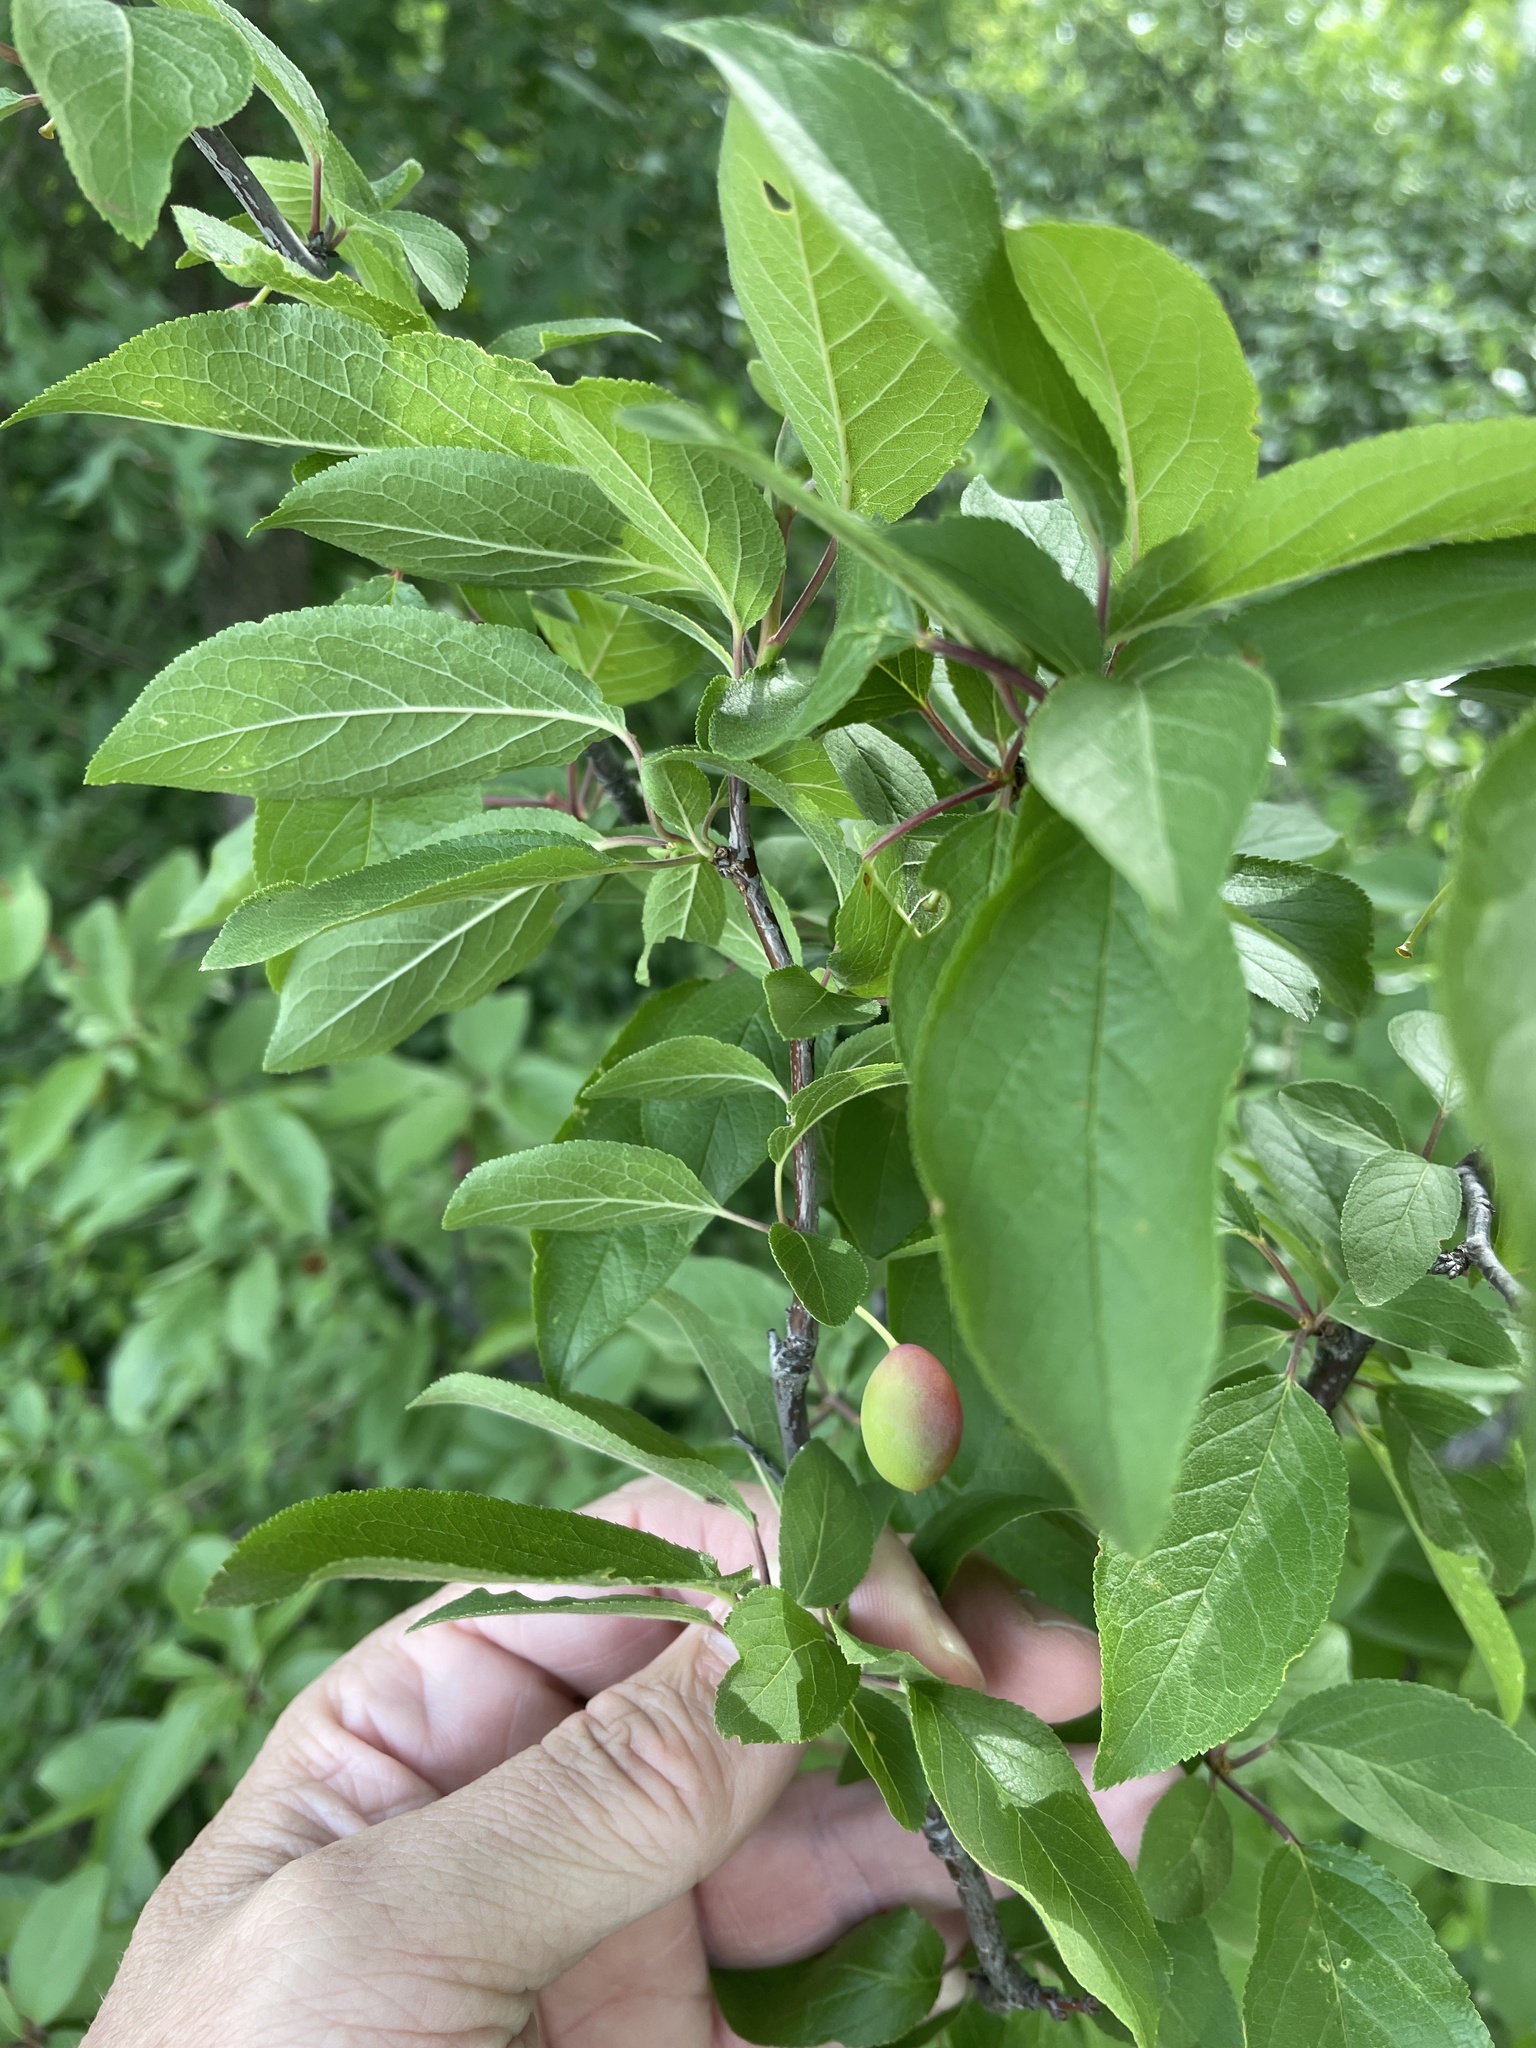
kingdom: Plantae
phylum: Tracheophyta
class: Magnoliopsida
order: Rosales
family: Rosaceae
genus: Prunus
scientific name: Prunus mexicana
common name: Mexican plum
